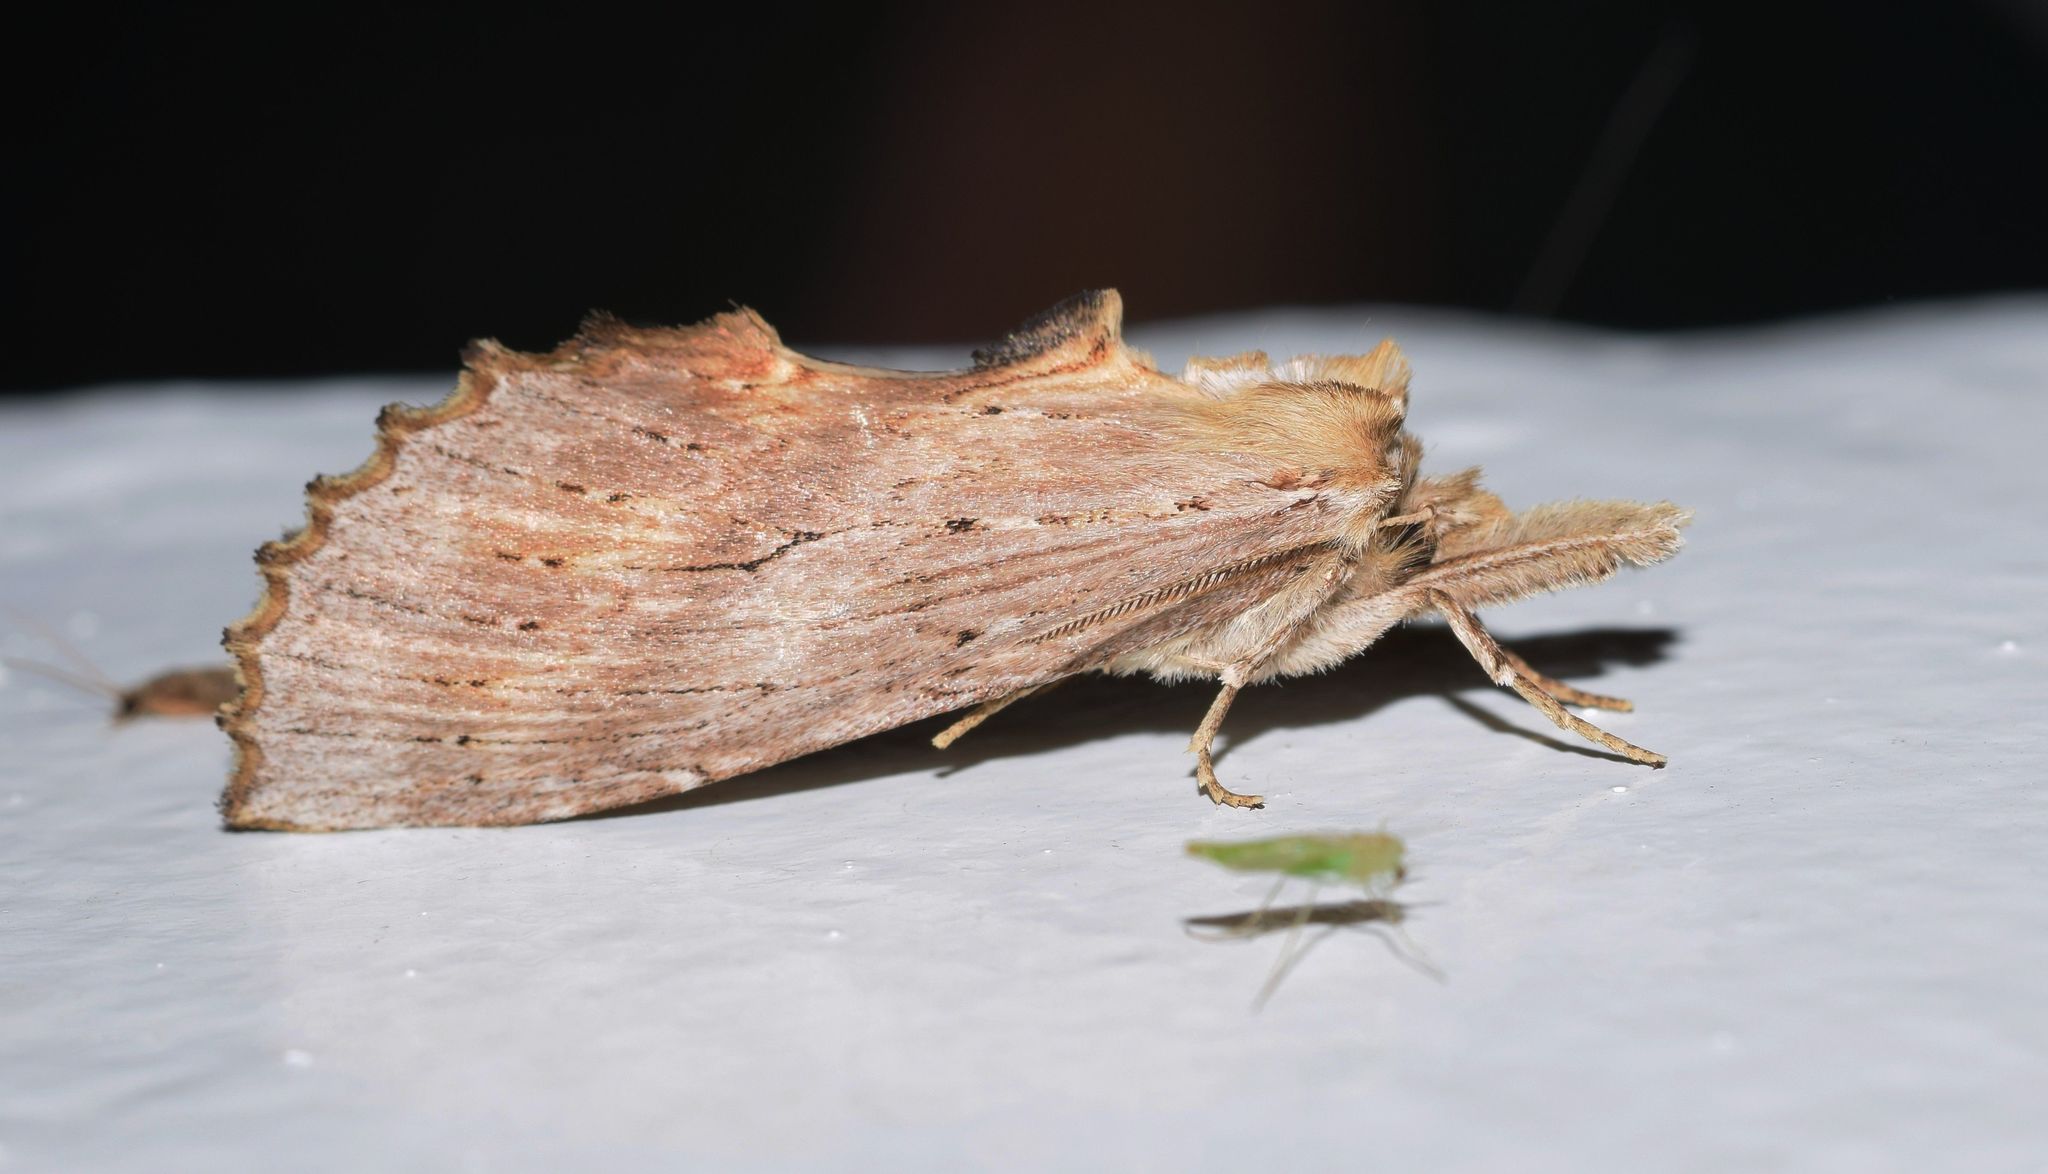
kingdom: Animalia
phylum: Arthropoda
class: Insecta
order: Lepidoptera
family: Notodontidae
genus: Pterostoma
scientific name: Pterostoma palpina
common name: Pale prominent
